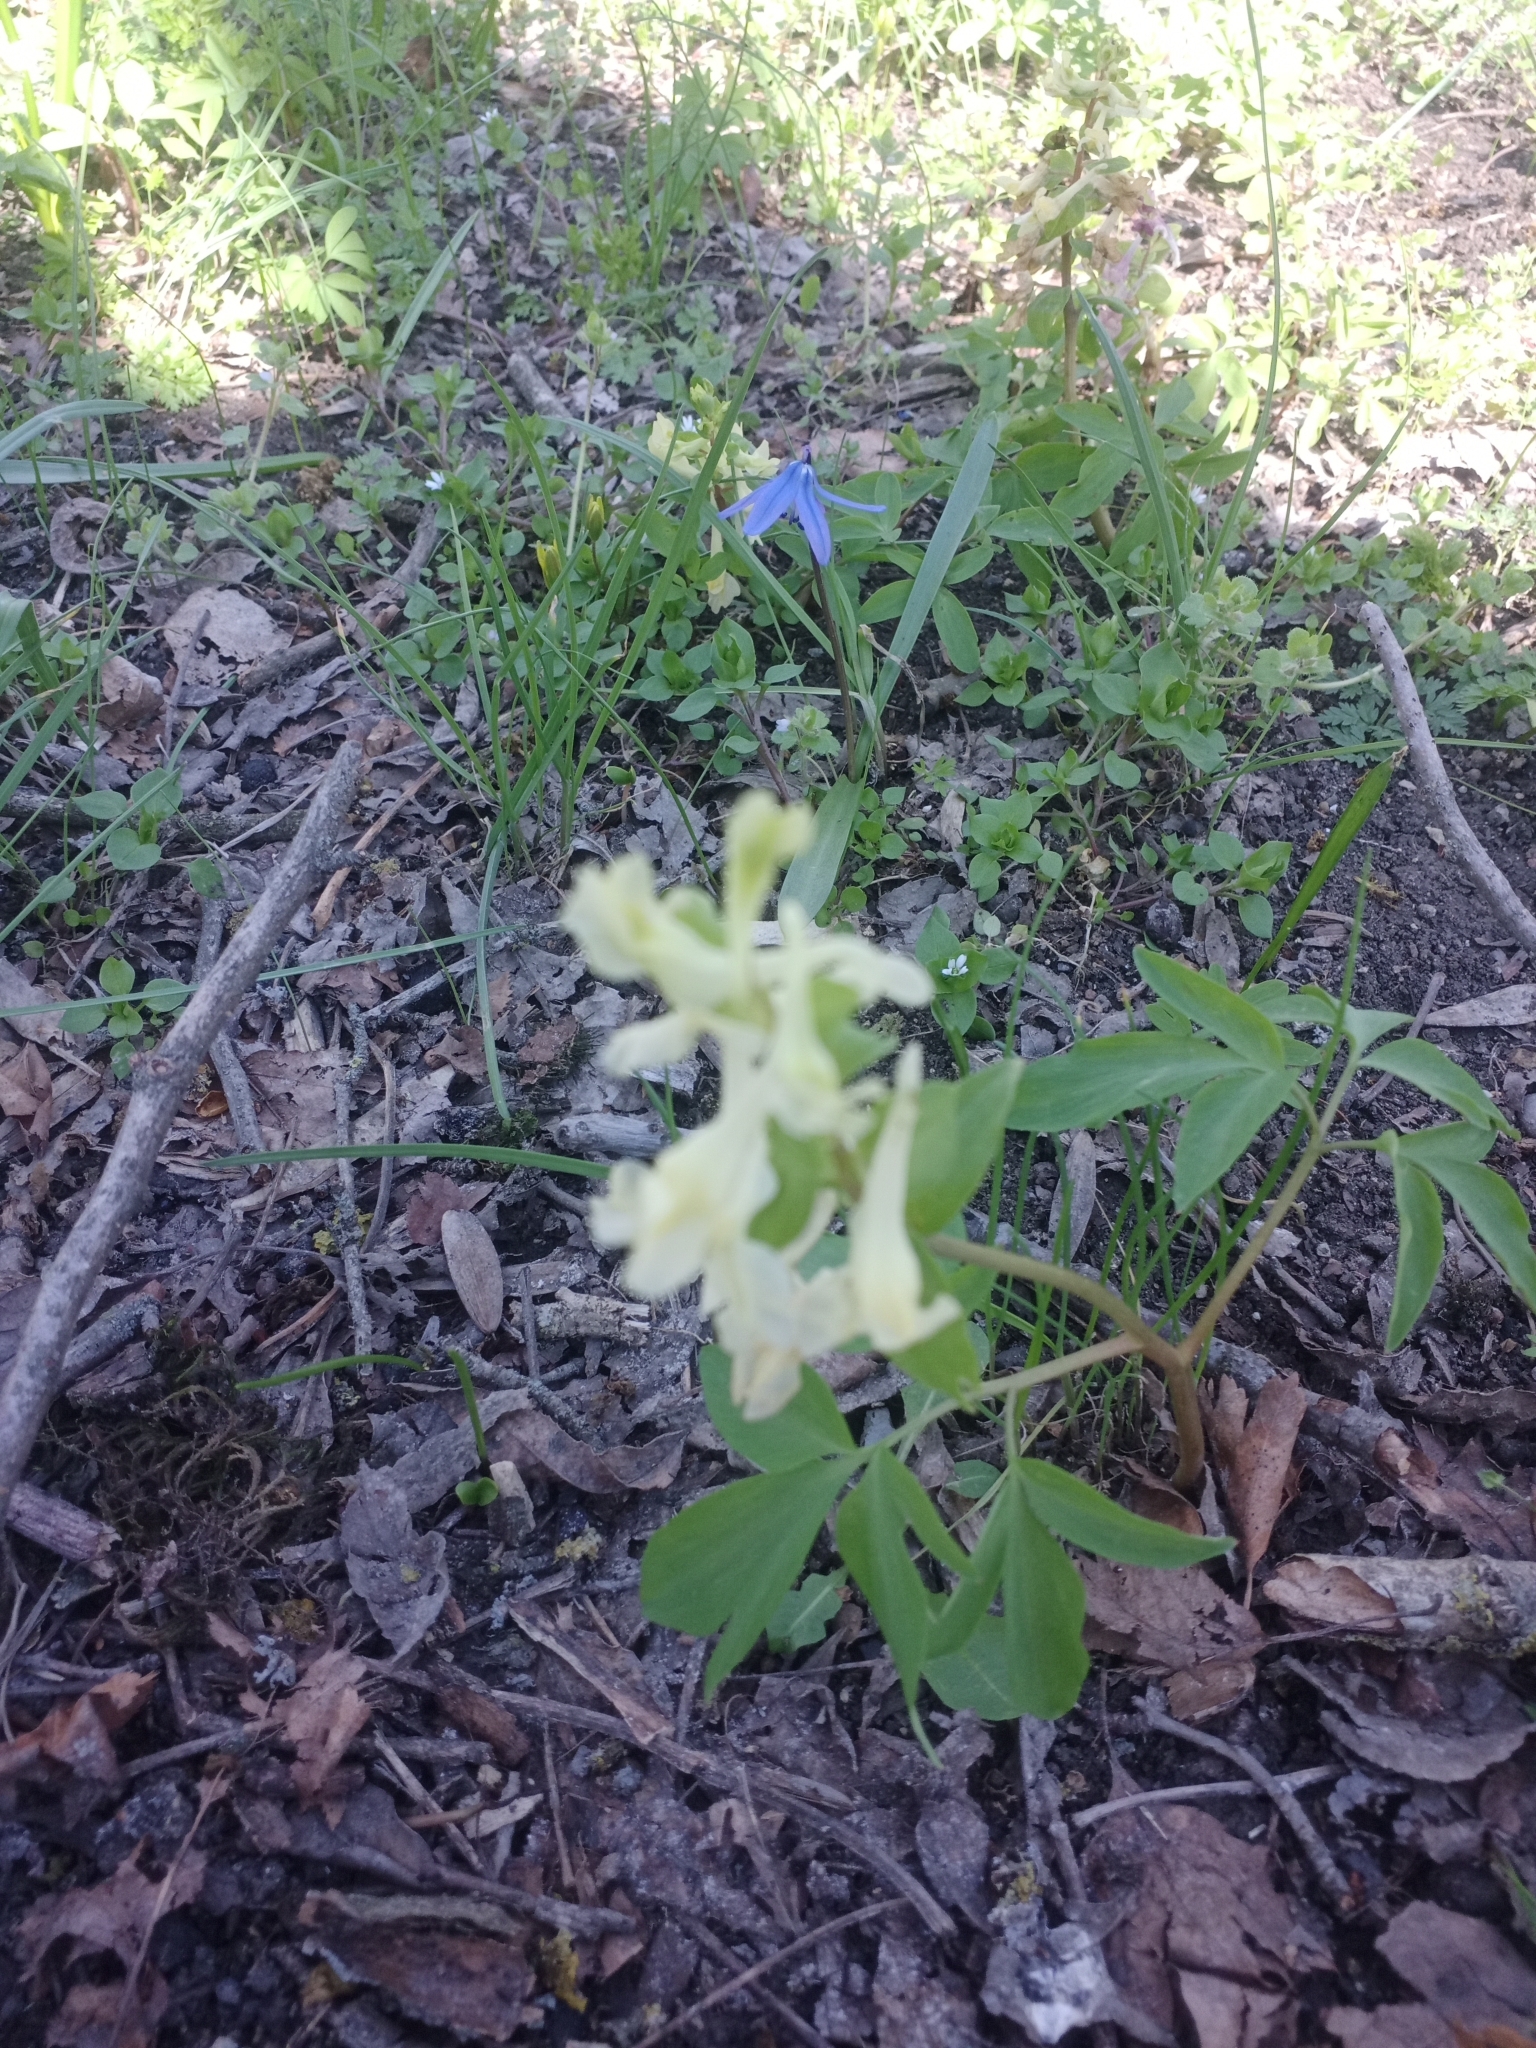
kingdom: Plantae
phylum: Tracheophyta
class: Magnoliopsida
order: Ranunculales
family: Papaveraceae
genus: Corydalis
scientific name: Corydalis cava
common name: Hollowroot
